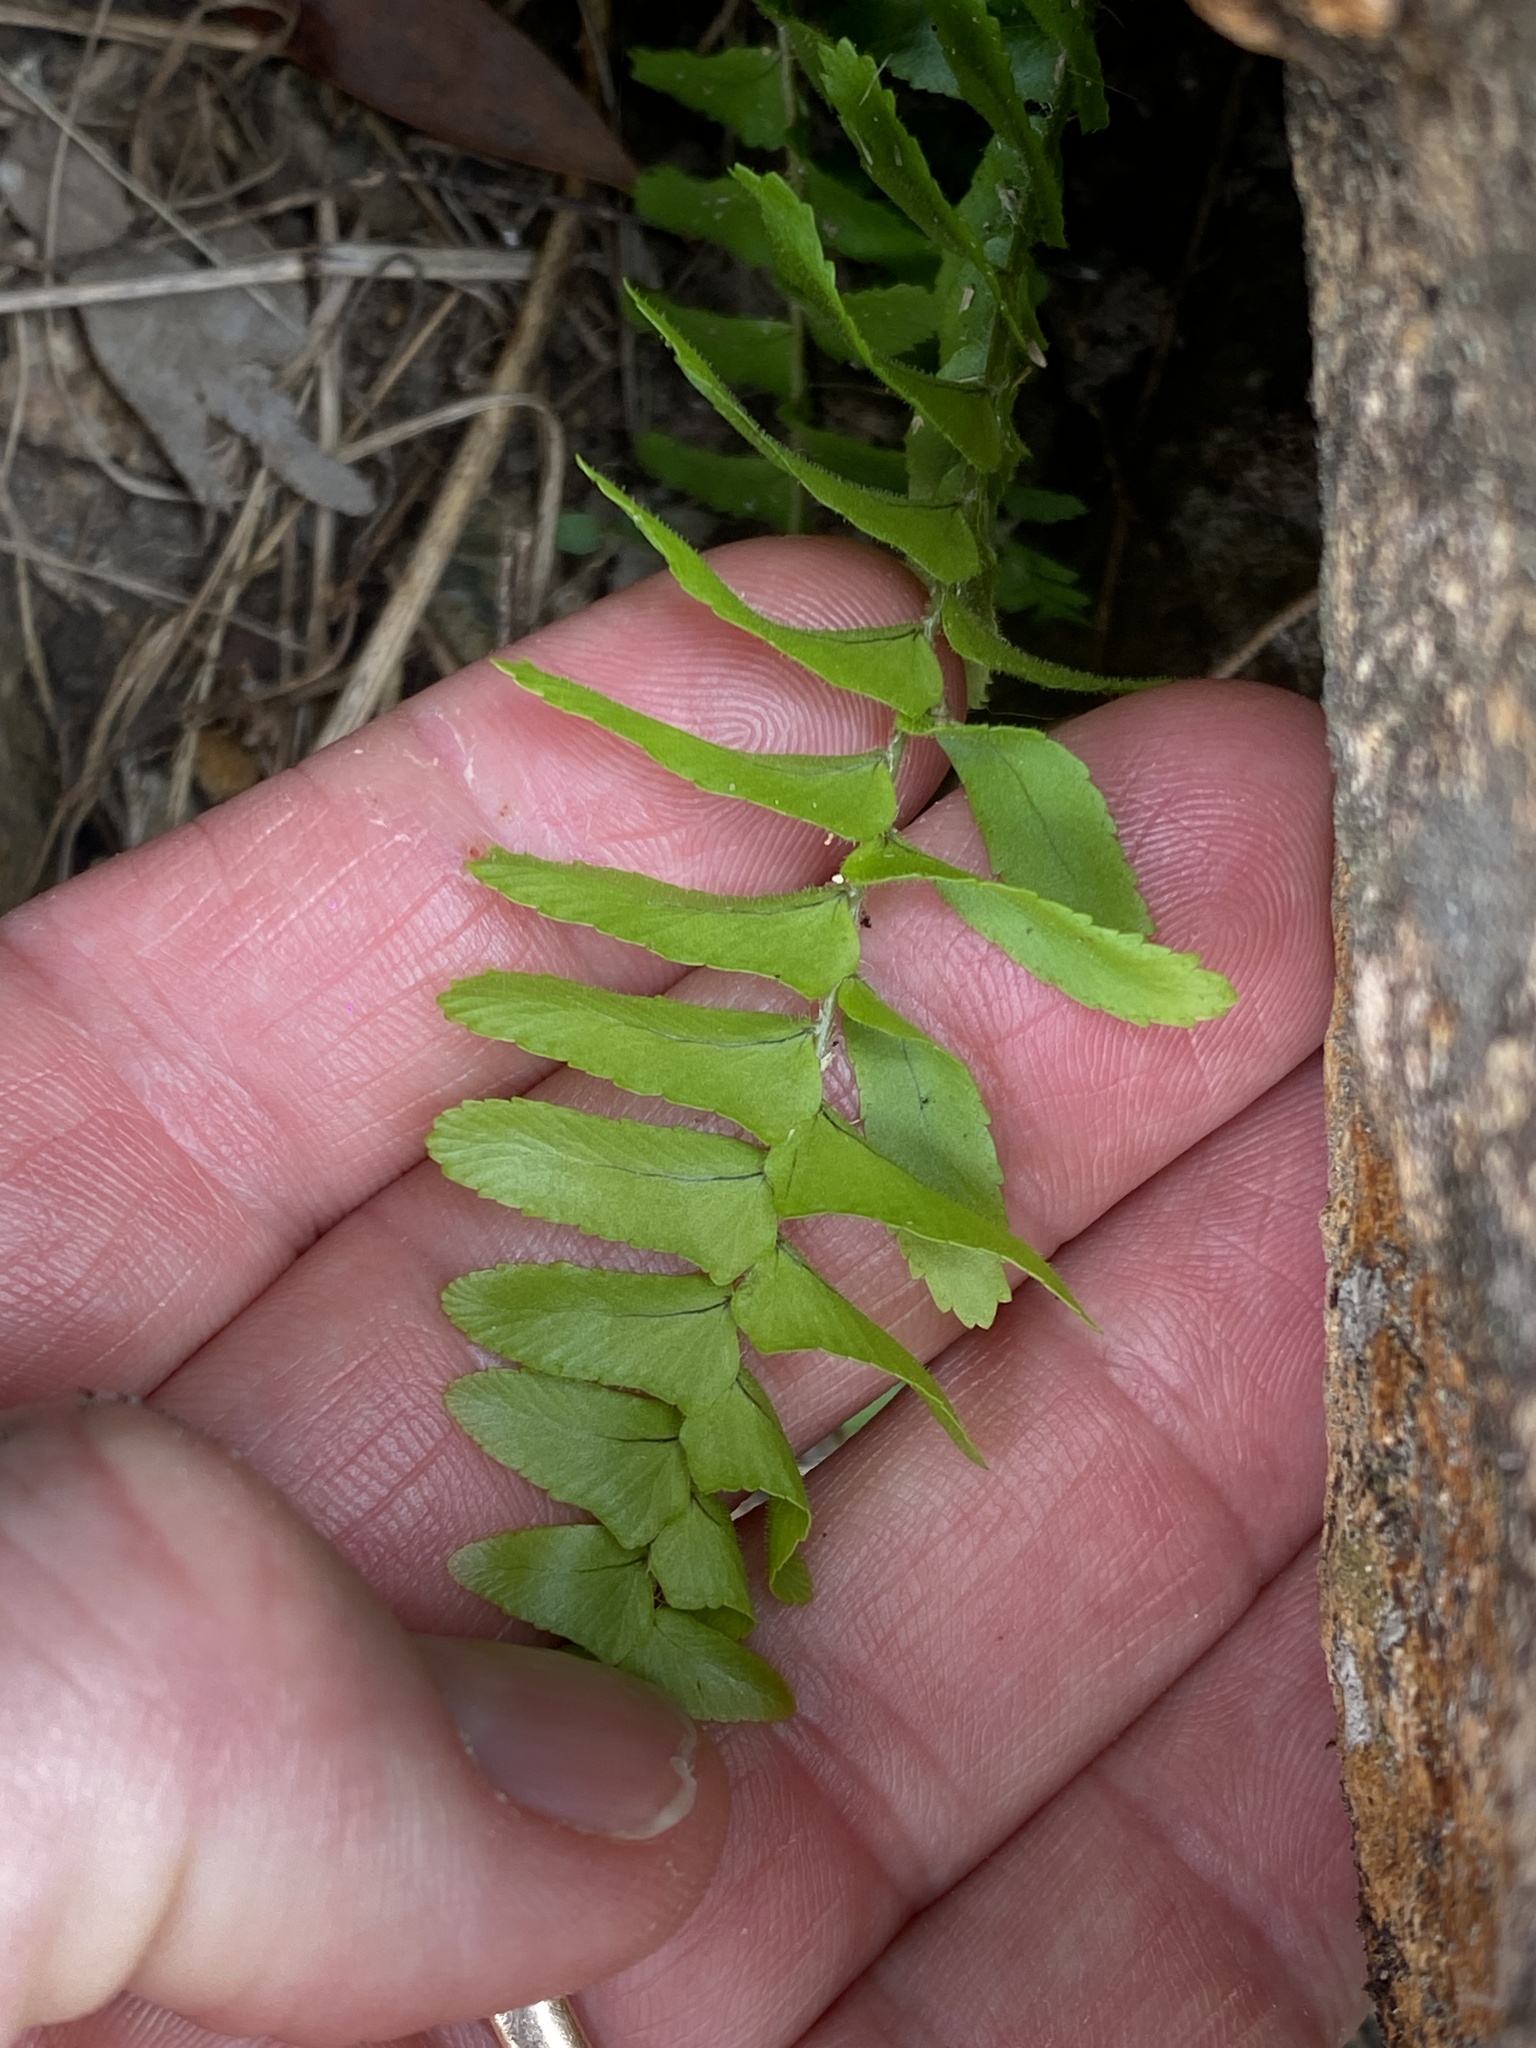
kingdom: Plantae
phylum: Tracheophyta
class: Polypodiopsida
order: Polypodiales
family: Nephrolepidaceae
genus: Nephrolepis
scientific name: Nephrolepis cordifolia
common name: Narrow swordfern
